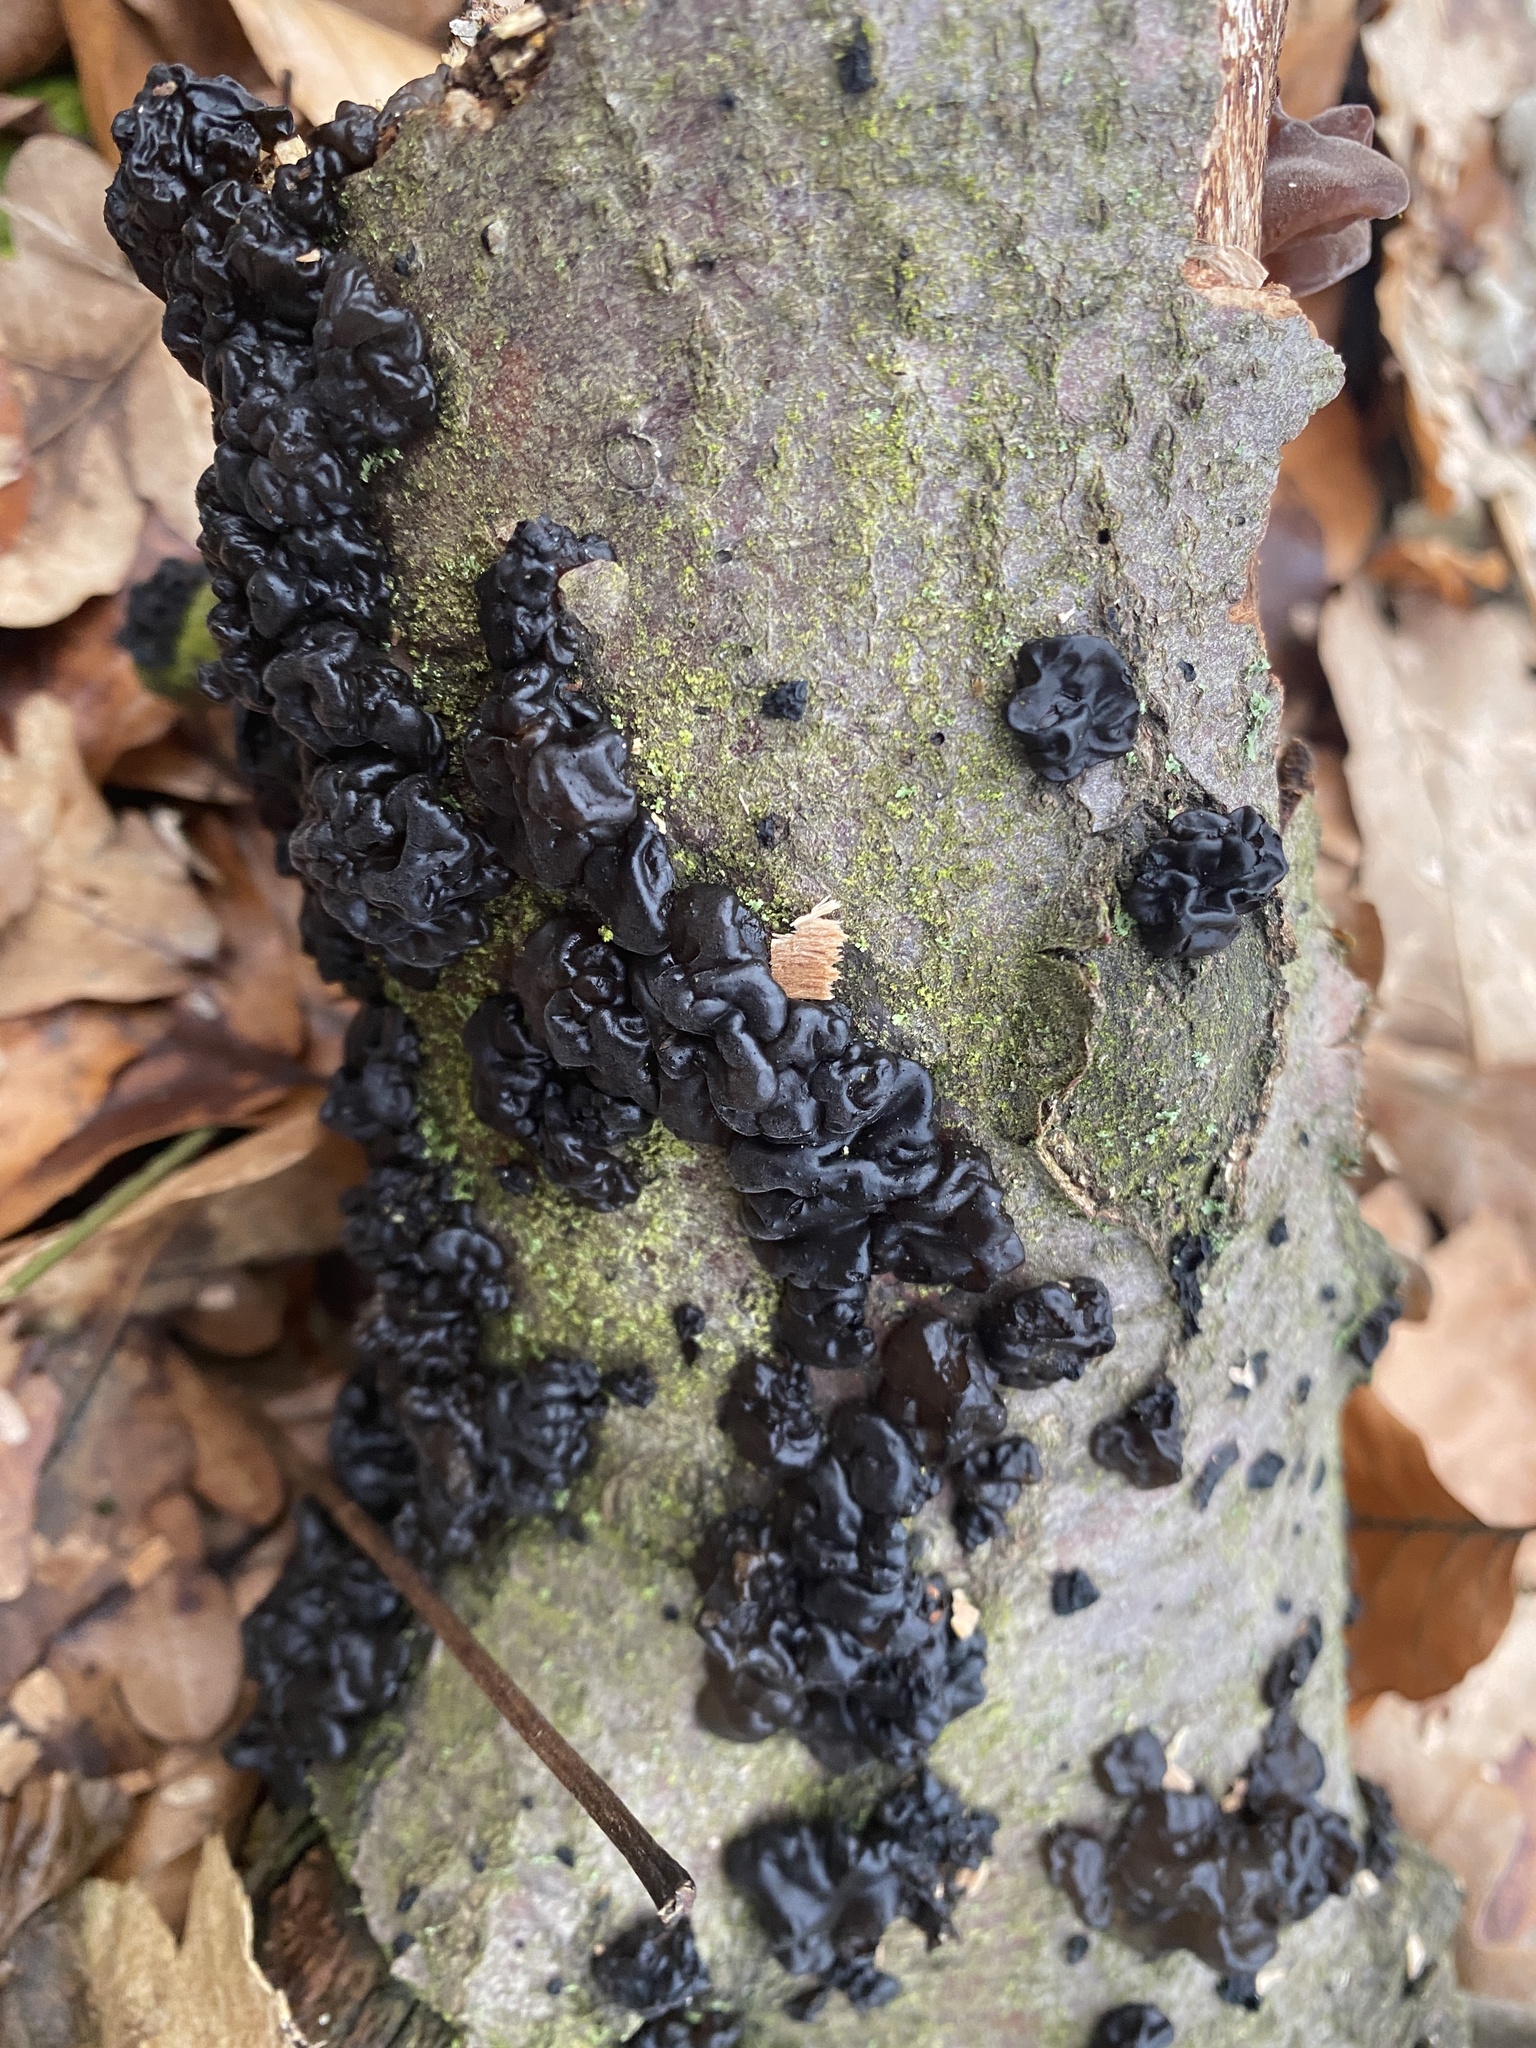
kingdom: Fungi
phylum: Basidiomycota
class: Agaricomycetes
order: Auriculariales
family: Auriculariaceae
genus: Exidia
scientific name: Exidia nigricans
